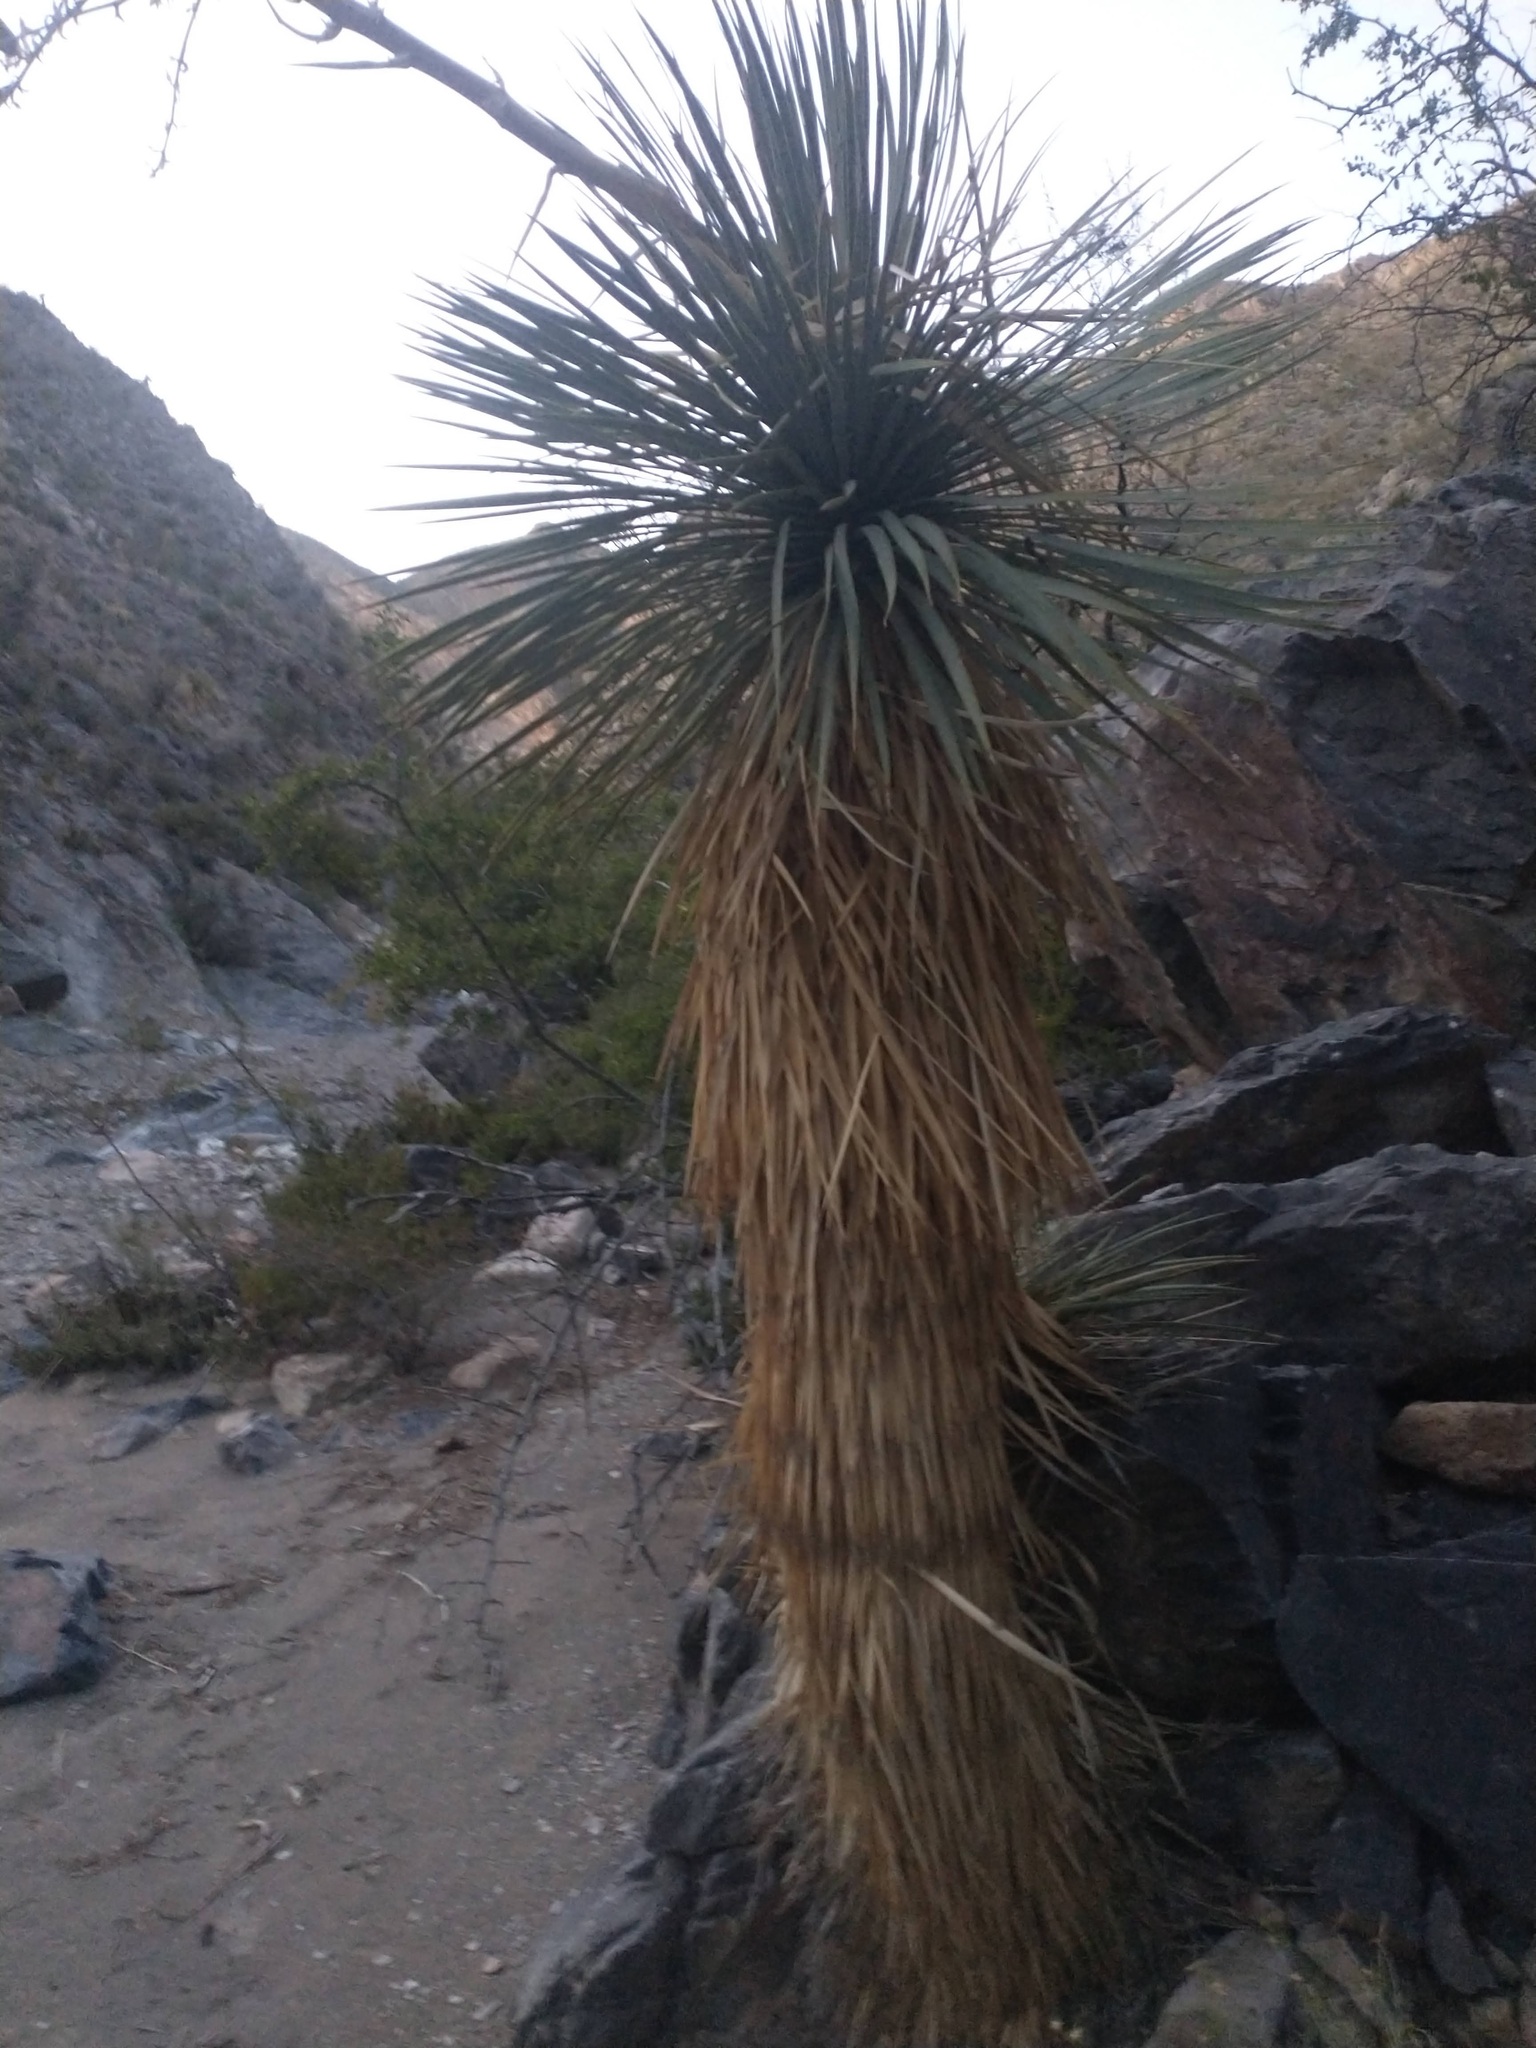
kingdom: Plantae
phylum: Tracheophyta
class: Liliopsida
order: Asparagales
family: Asparagaceae
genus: Yucca
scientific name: Yucca rostrata
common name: Big bend yucca
